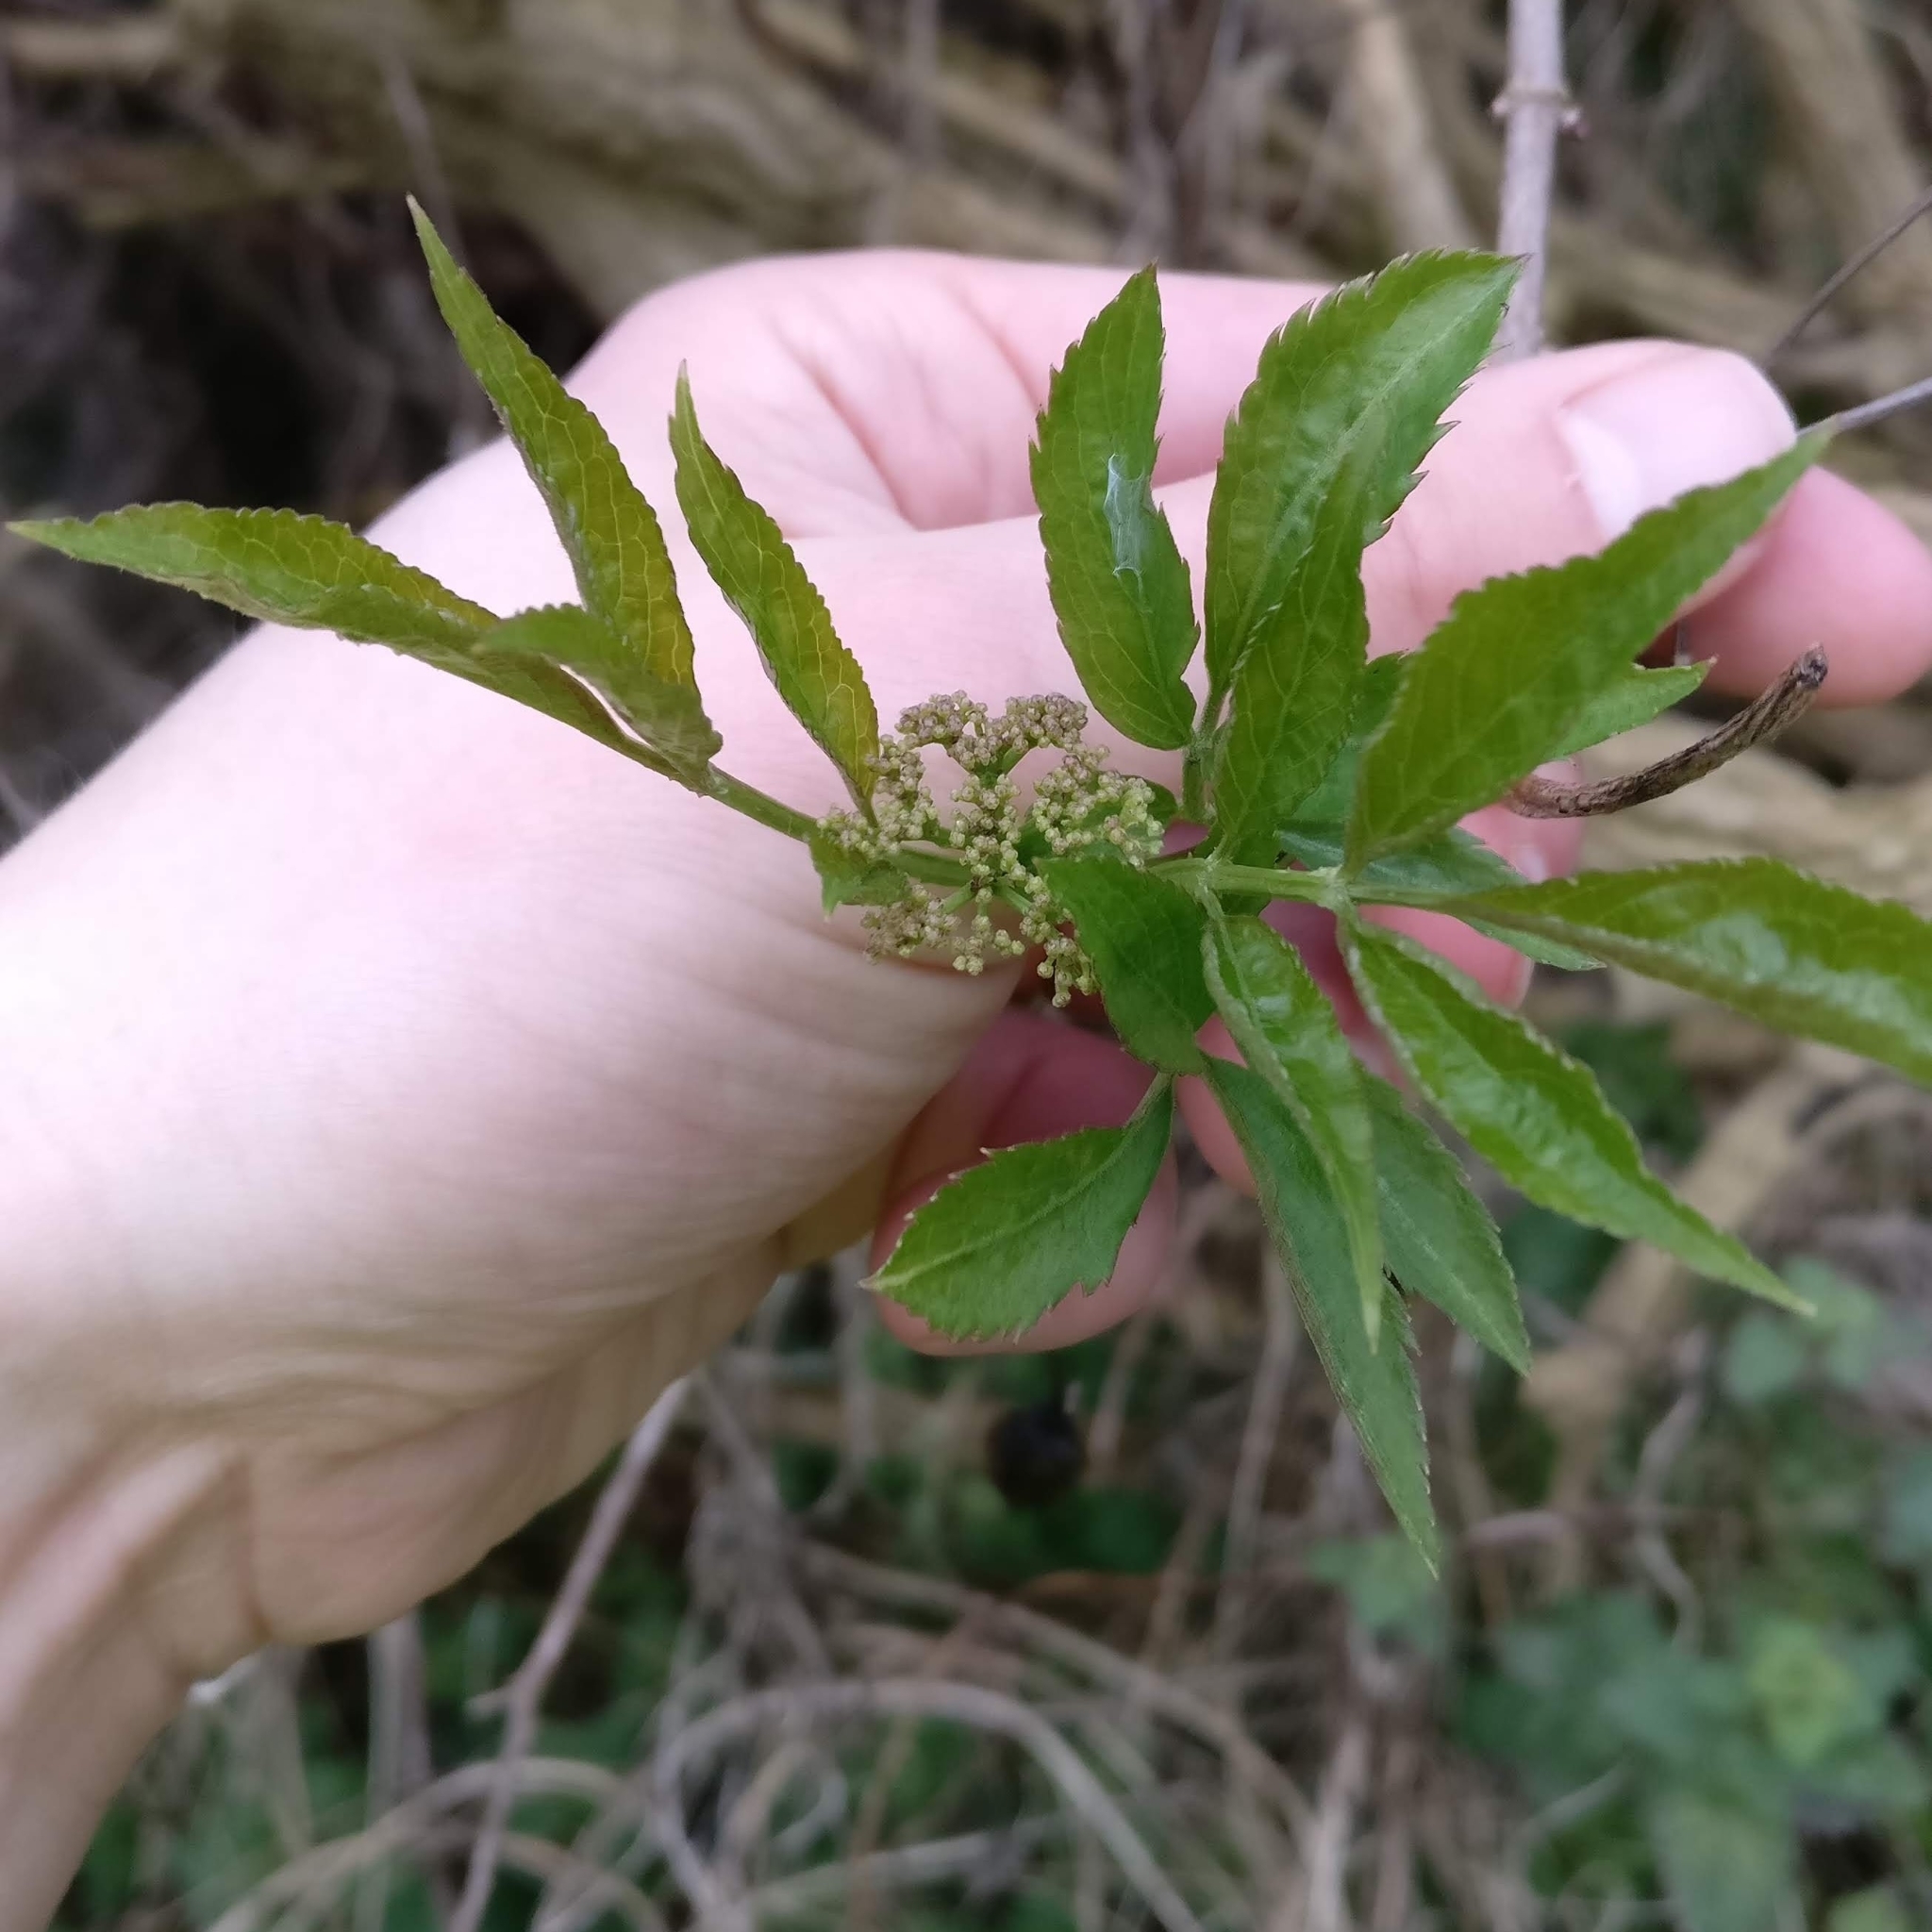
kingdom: Plantae
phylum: Tracheophyta
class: Magnoliopsida
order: Dipsacales
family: Viburnaceae
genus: Sambucus
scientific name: Sambucus nigra
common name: Elder
